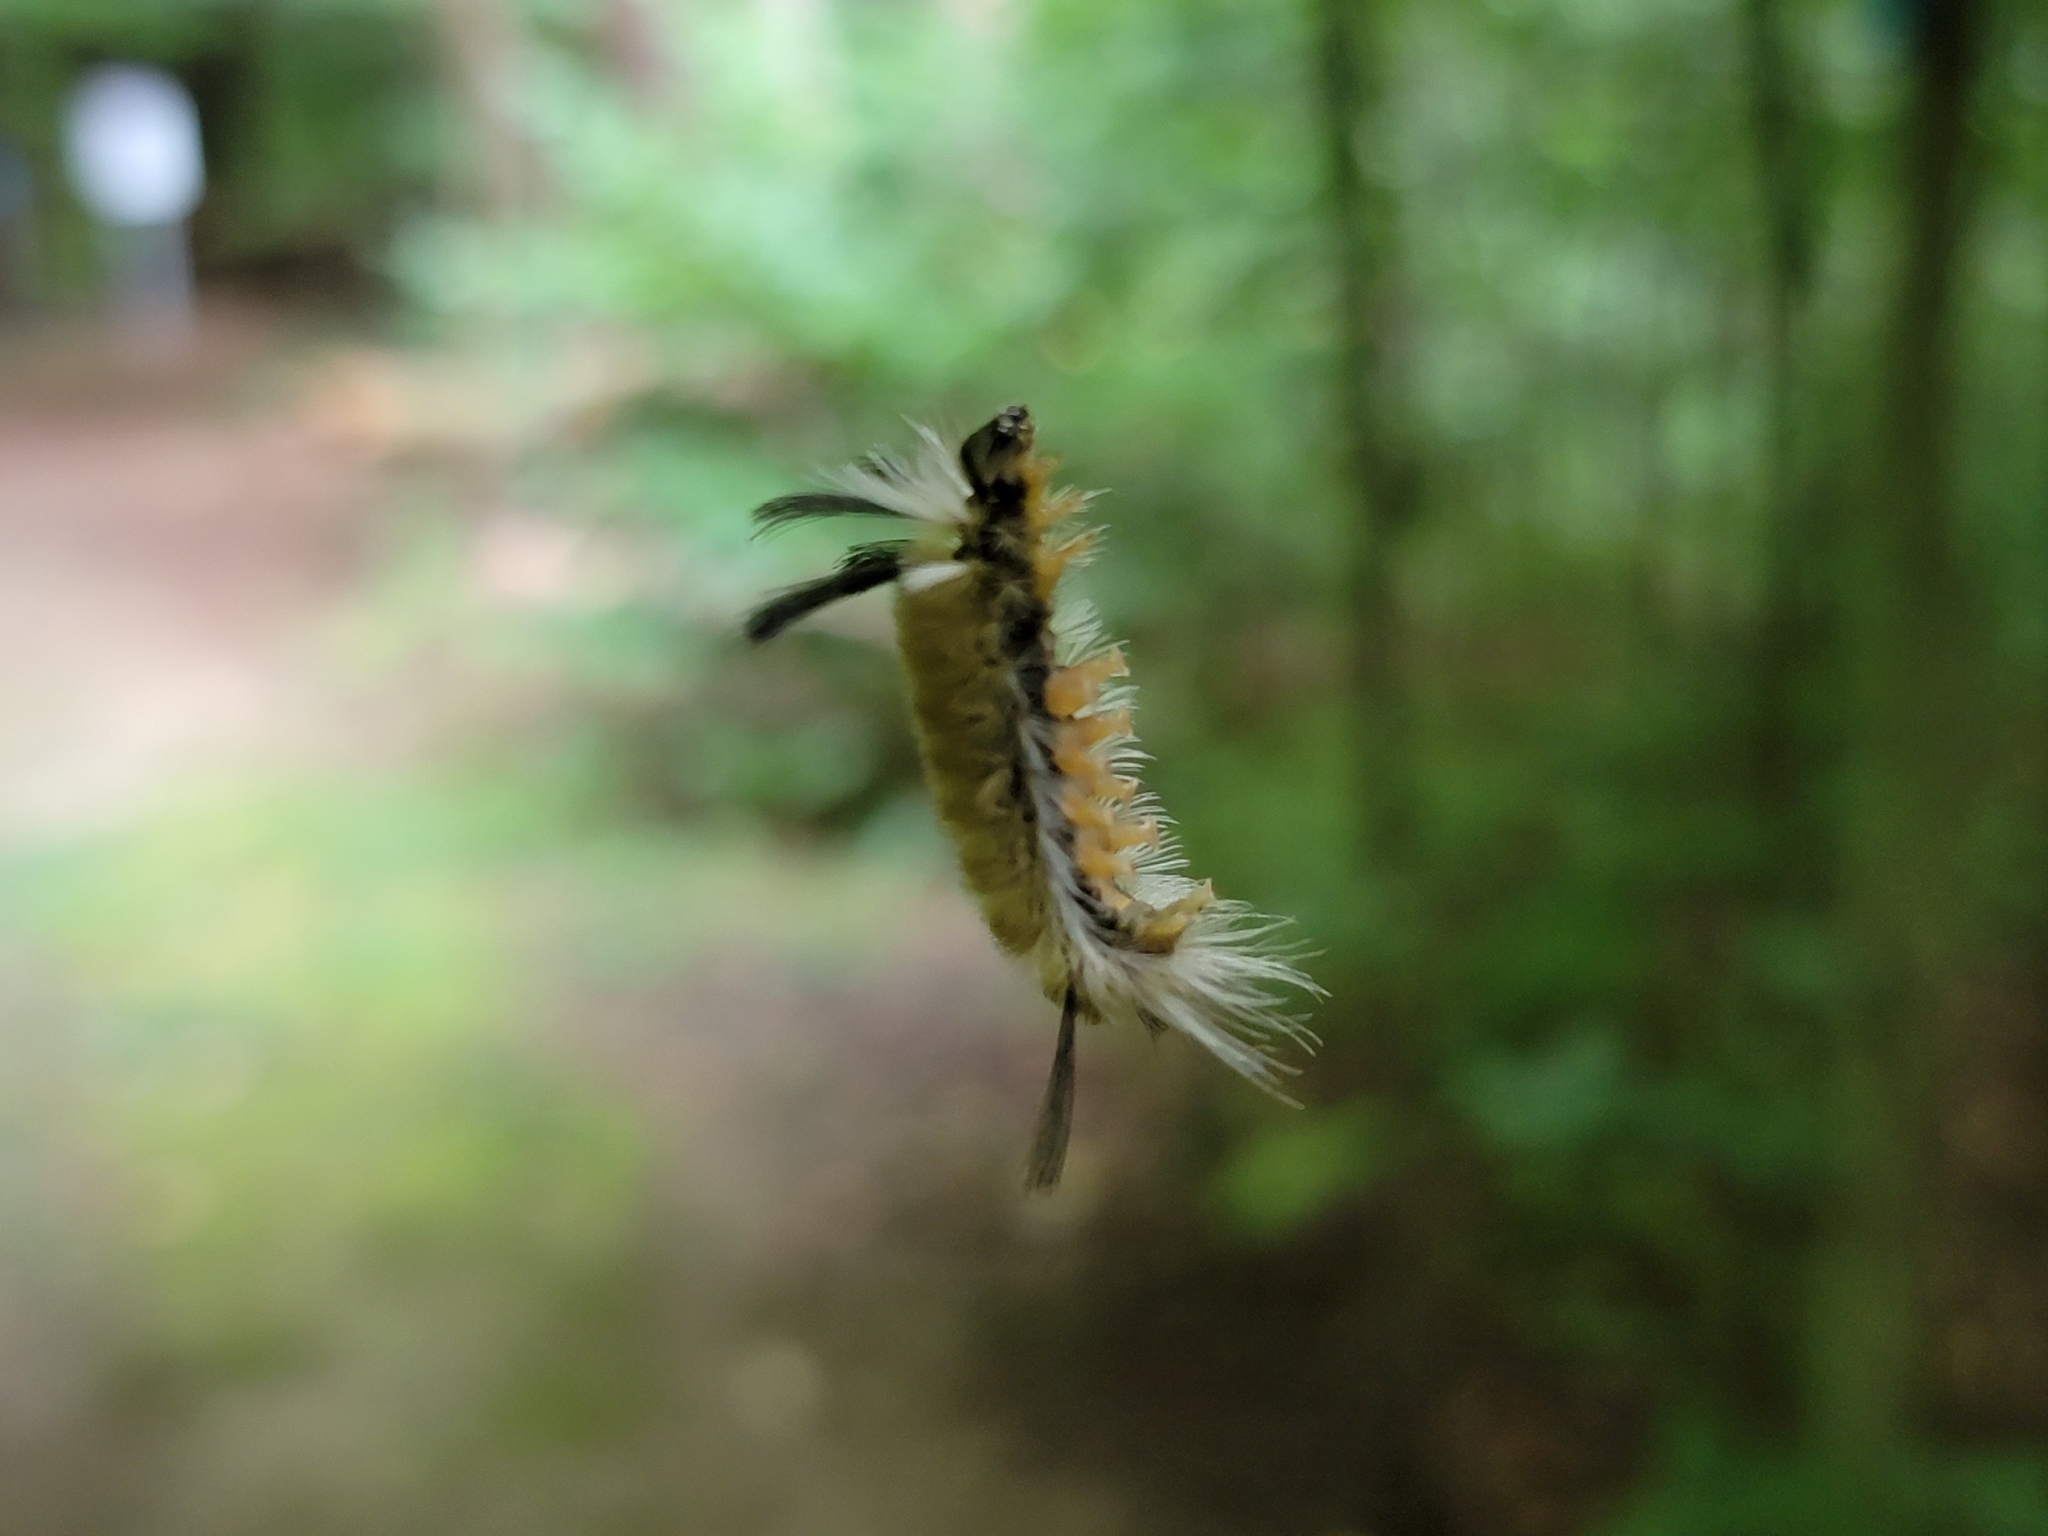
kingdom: Animalia
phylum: Arthropoda
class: Insecta
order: Lepidoptera
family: Erebidae
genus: Halysidota
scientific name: Halysidota tessellaris
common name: Banded tussock moth
